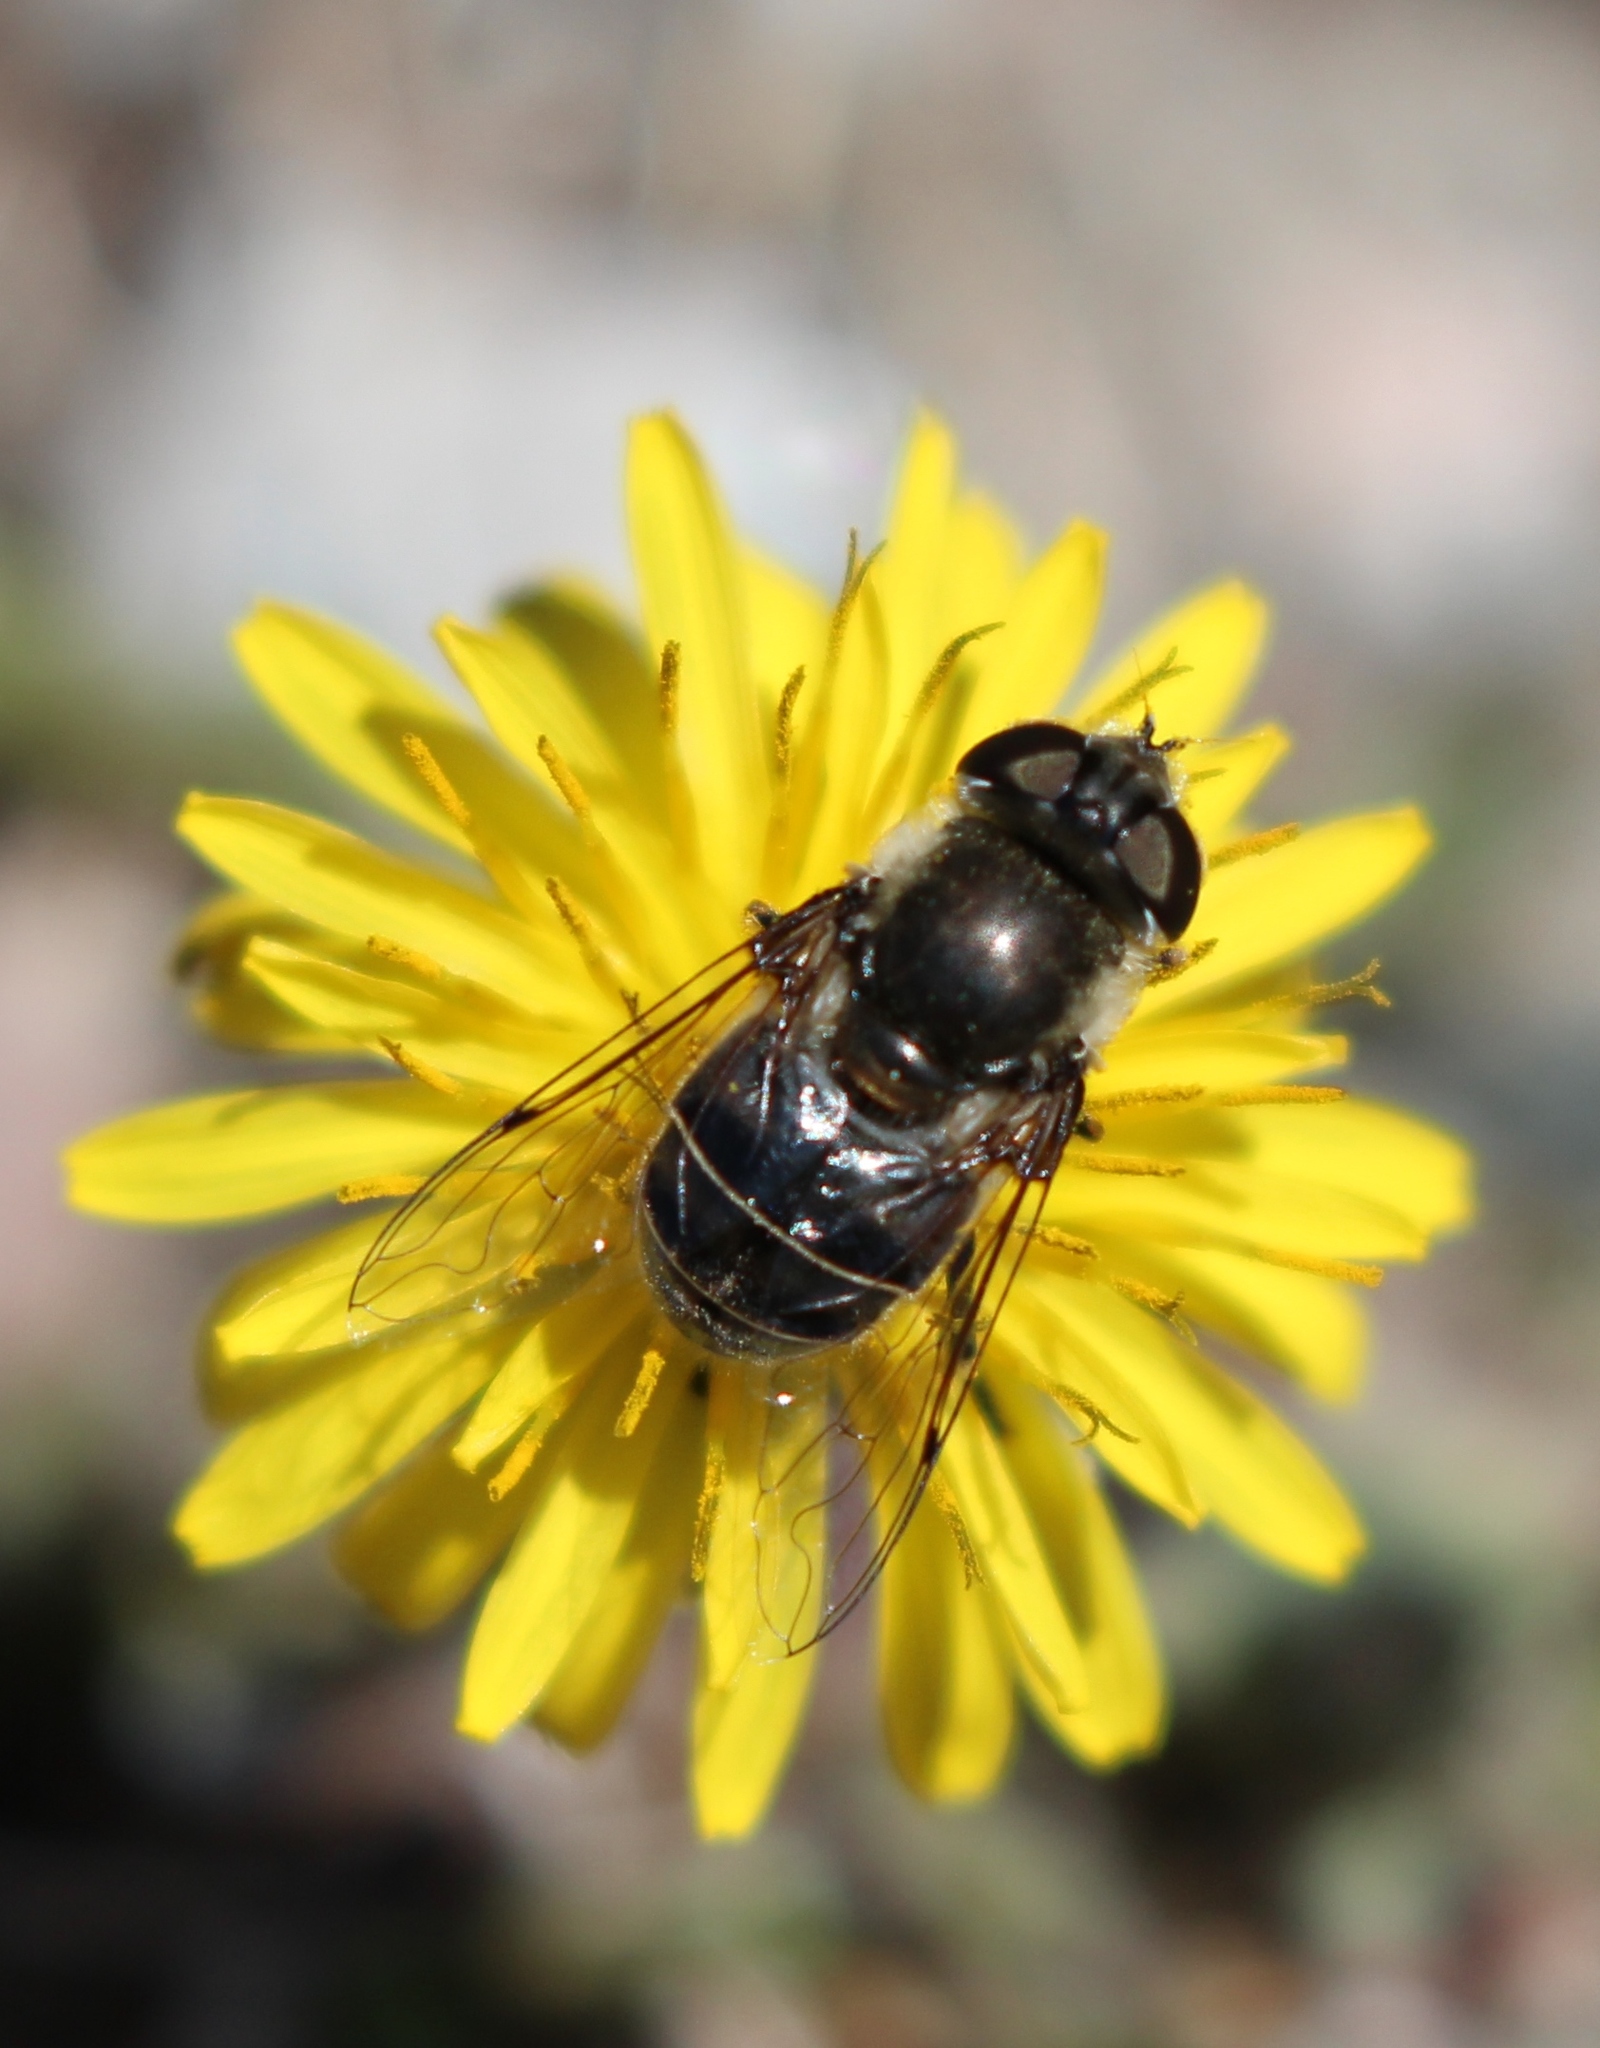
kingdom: Animalia
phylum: Arthropoda
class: Insecta
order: Diptera
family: Syrphidae
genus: Eristalis
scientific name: Eristalis dimidiata
